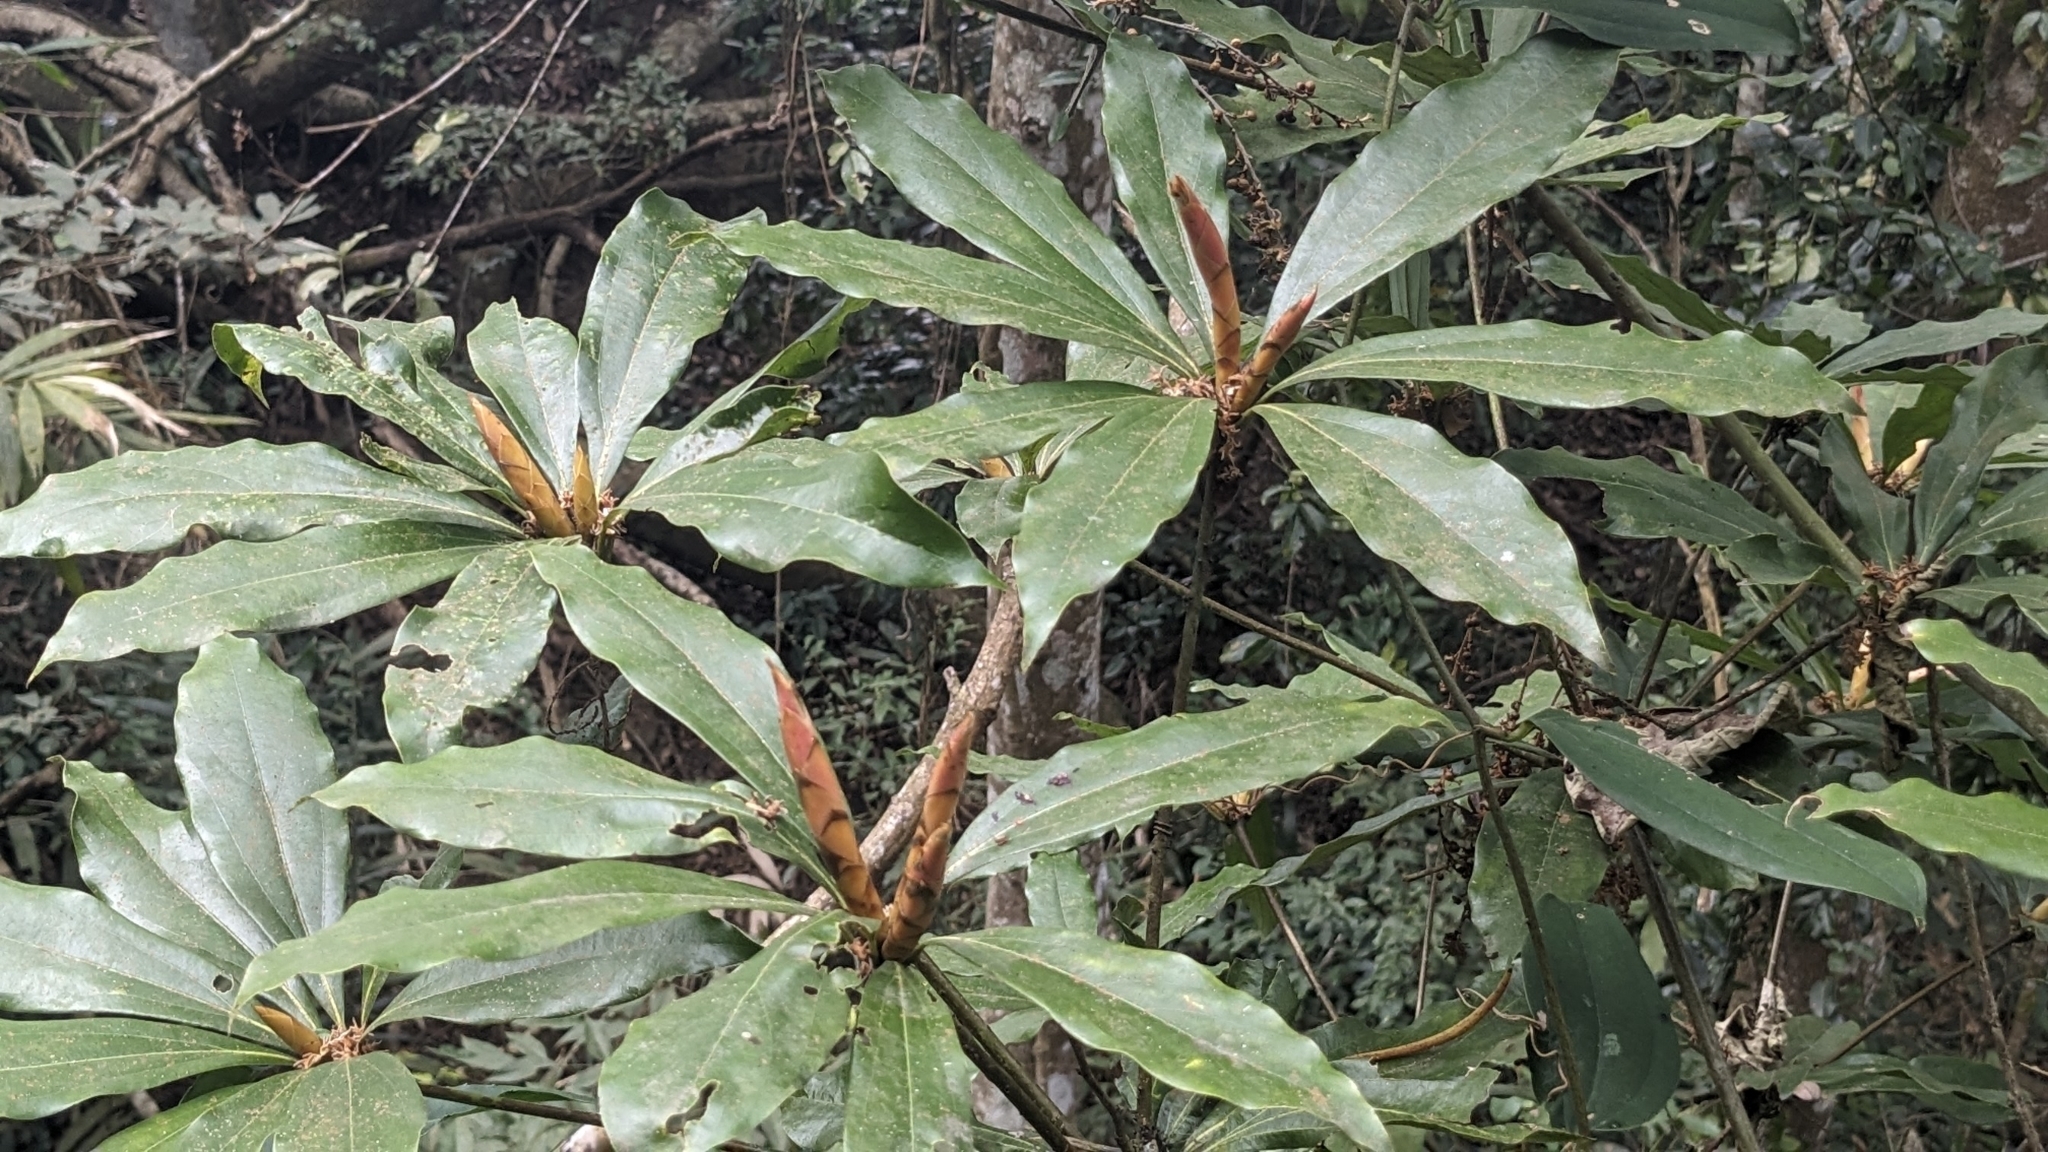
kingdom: Plantae
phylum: Tracheophyta
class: Magnoliopsida
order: Laurales
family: Lauraceae
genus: Neolitsea
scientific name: Neolitsea konishii
